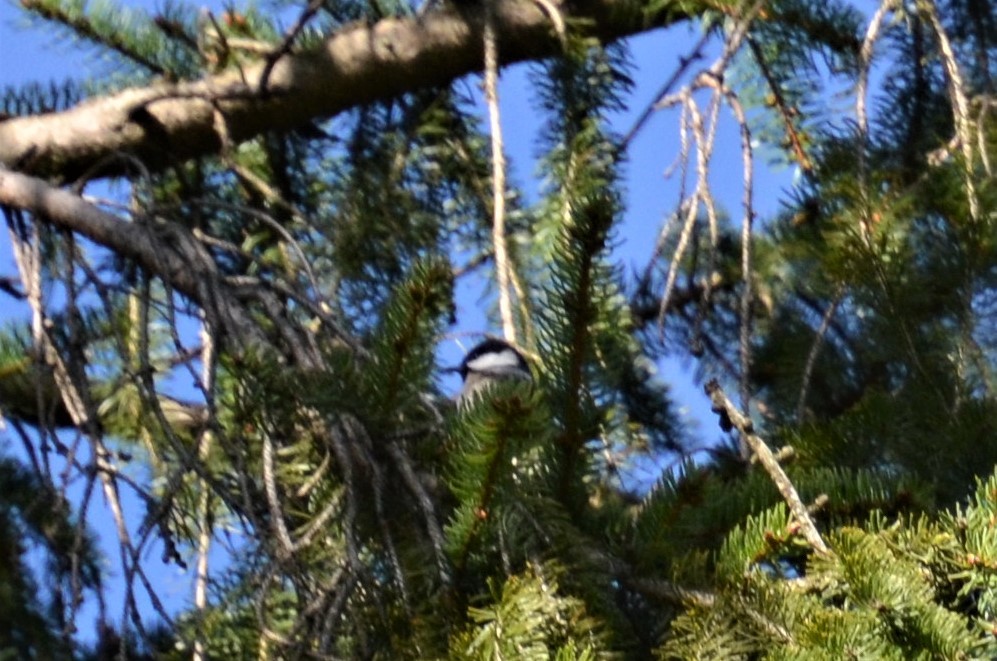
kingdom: Animalia
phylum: Chordata
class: Aves
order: Passeriformes
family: Paridae
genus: Periparus
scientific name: Periparus ater
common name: Coal tit
